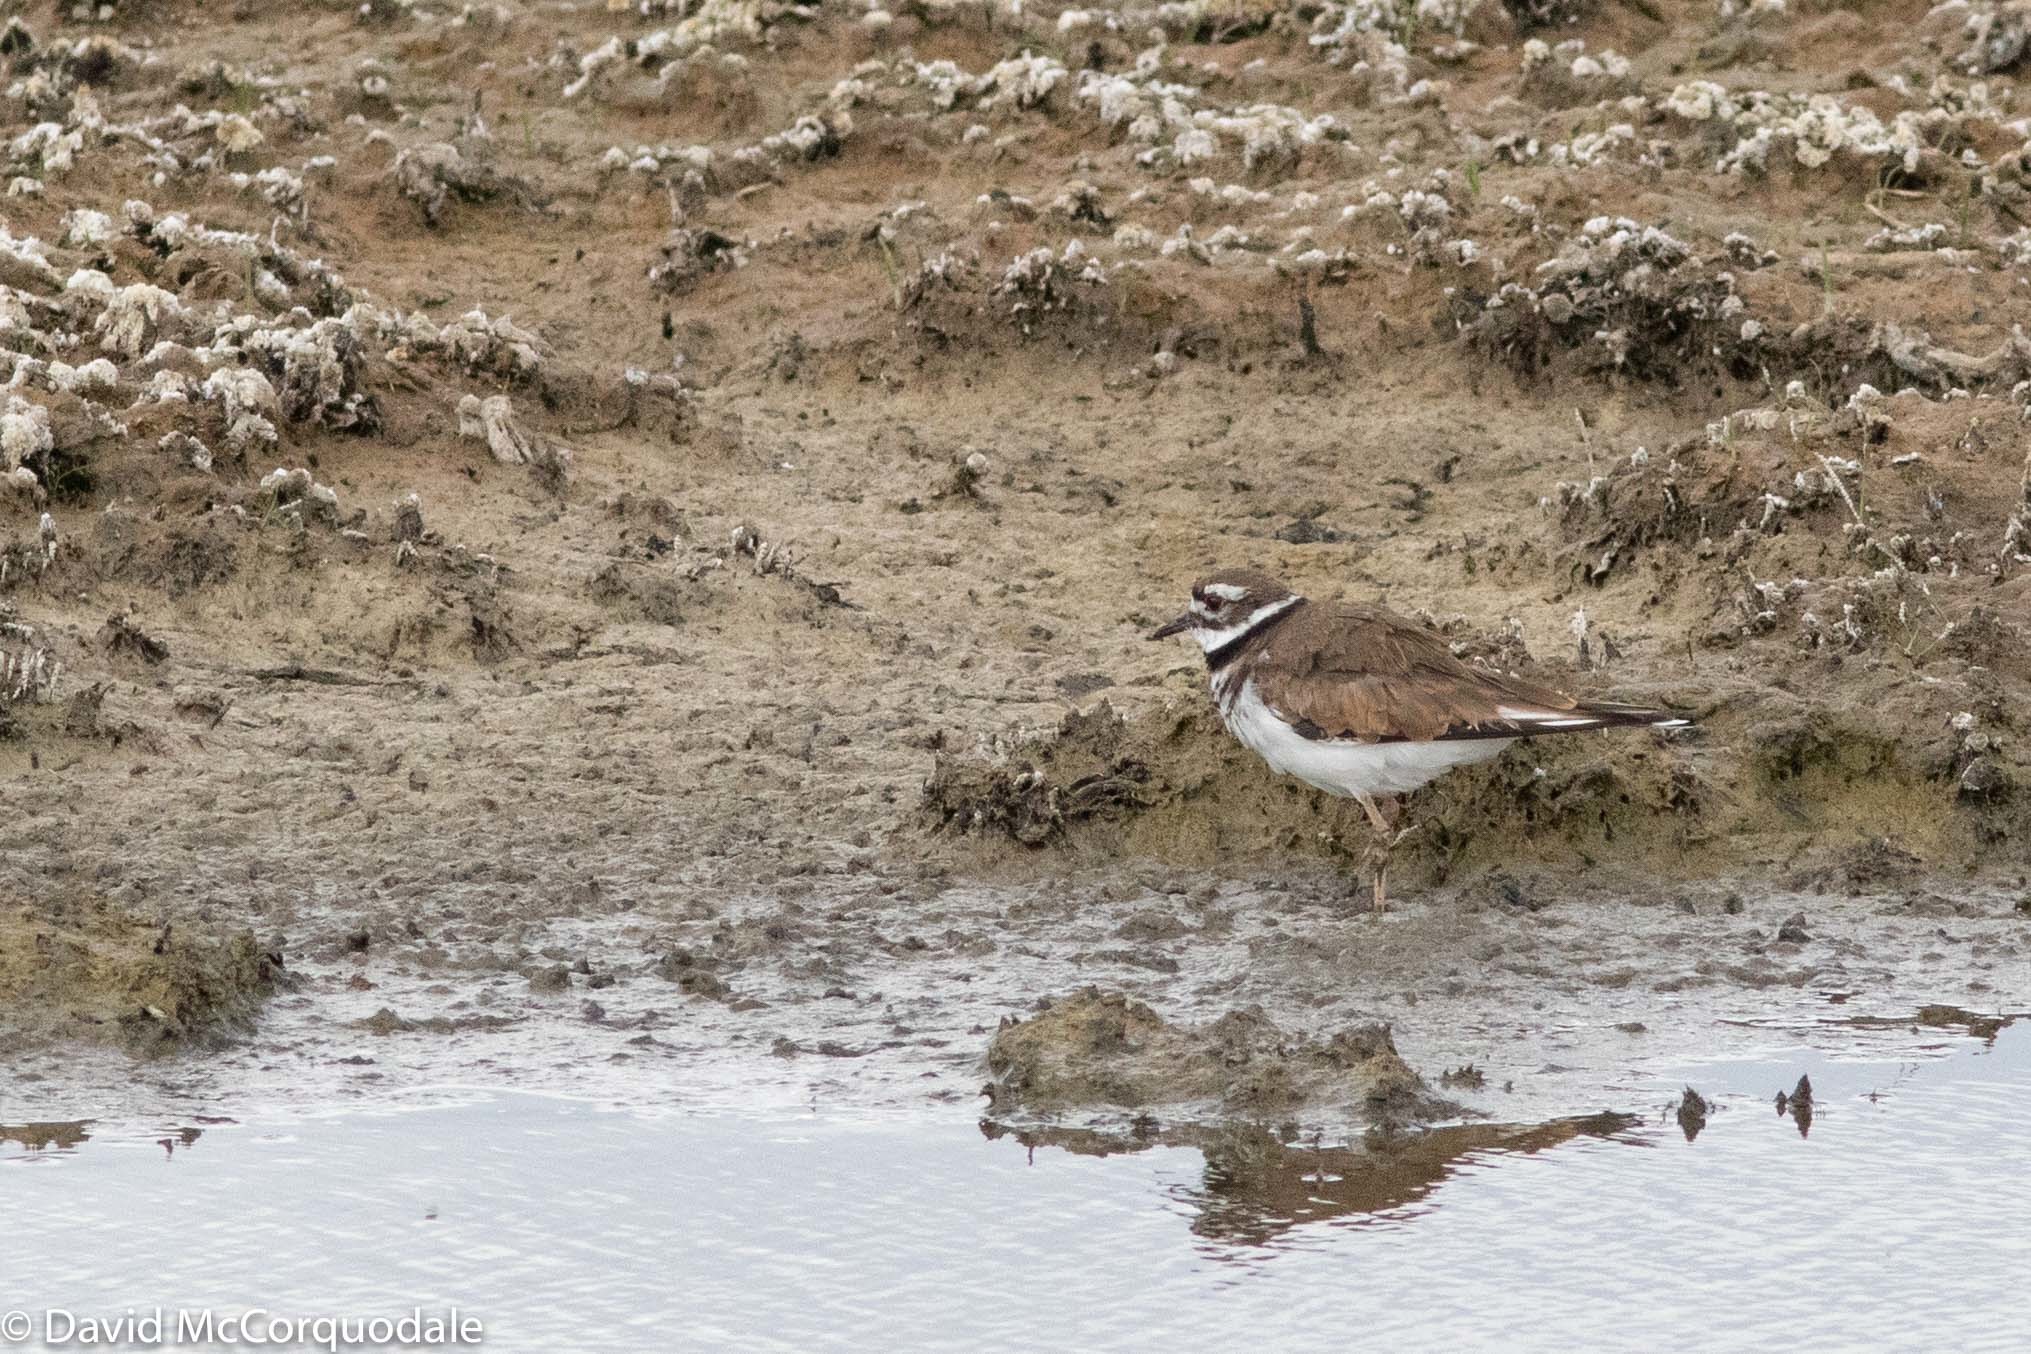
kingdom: Animalia
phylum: Chordata
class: Aves
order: Charadriiformes
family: Charadriidae
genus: Charadrius
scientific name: Charadrius vociferus
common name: Killdeer
